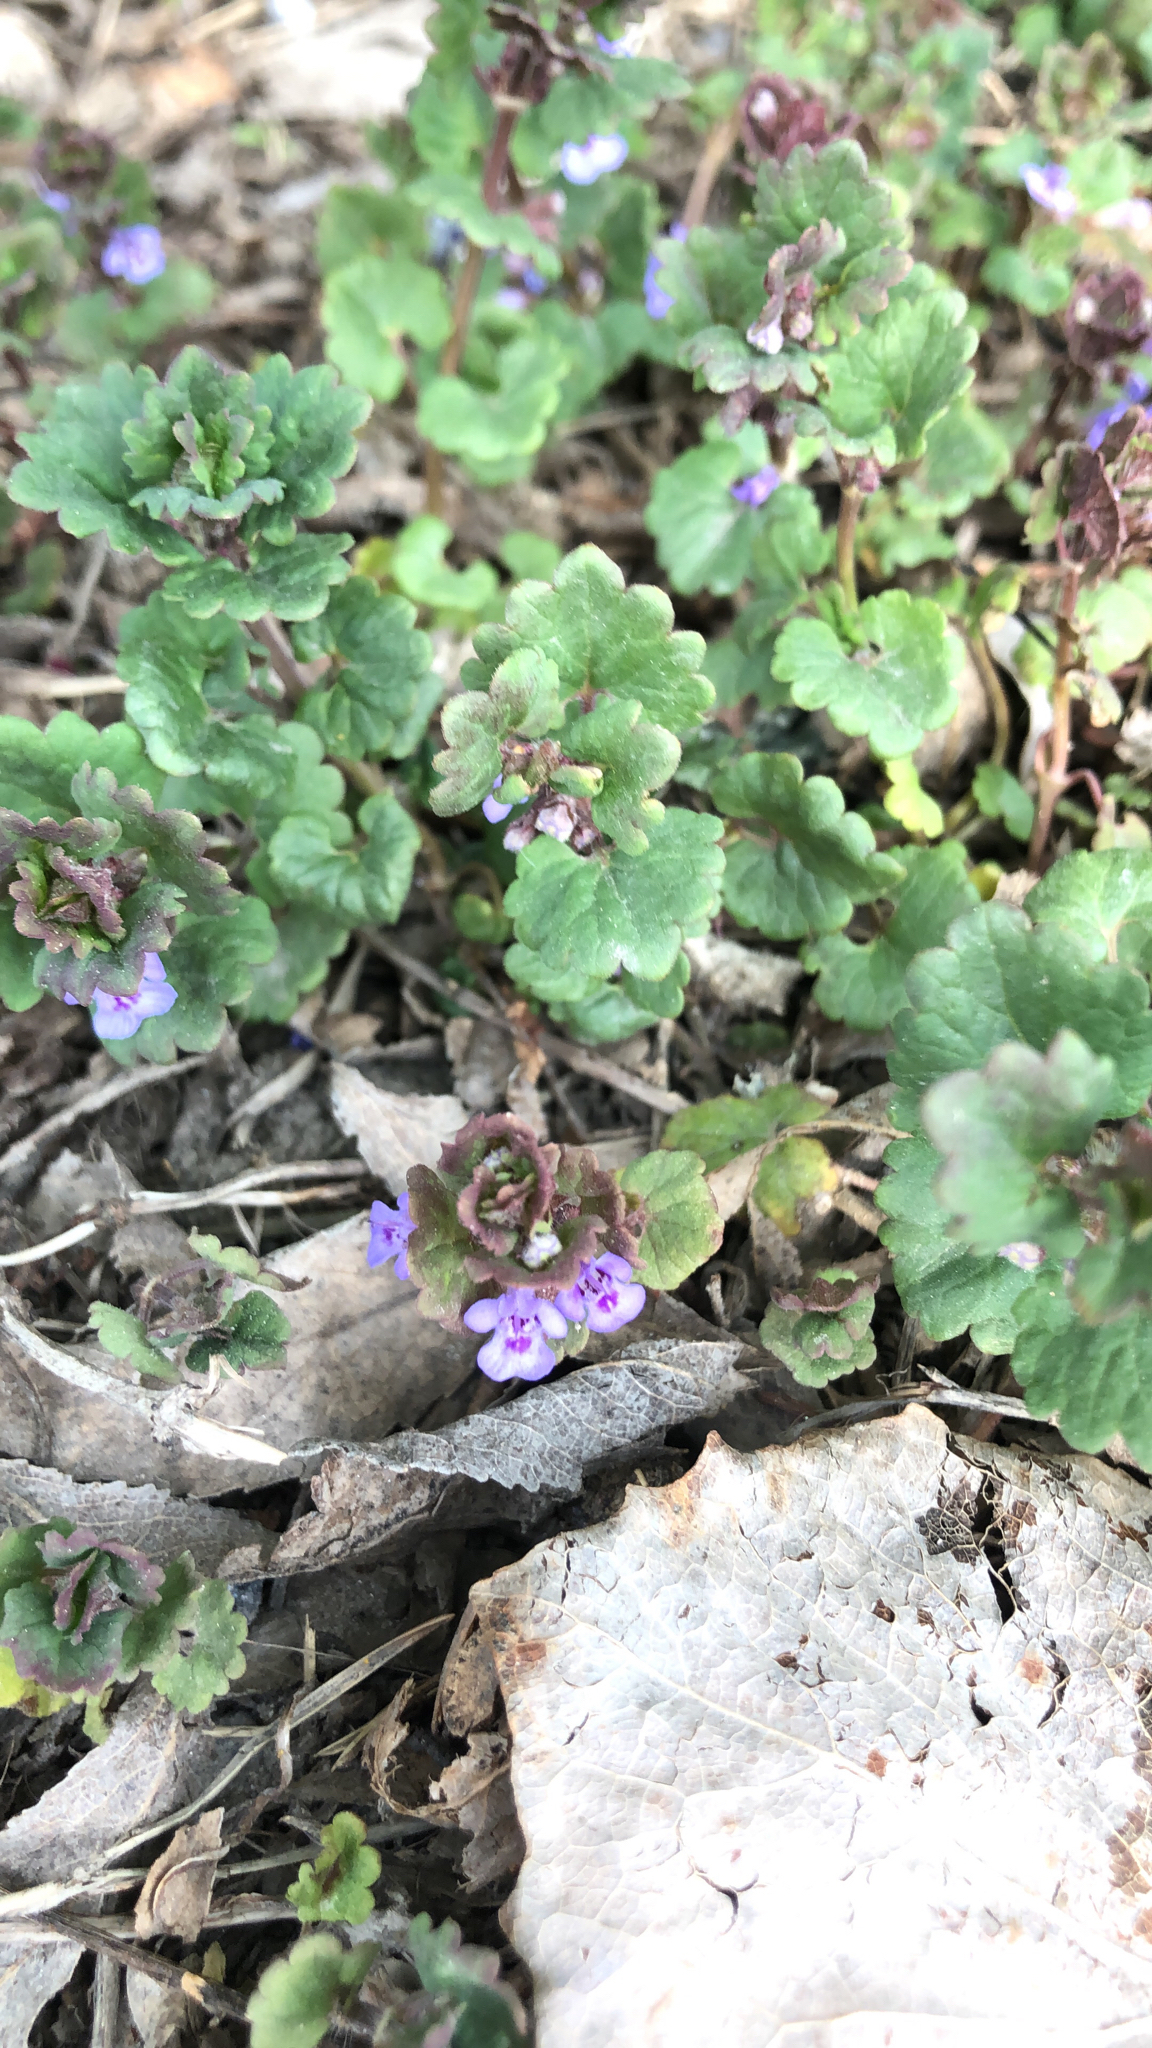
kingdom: Plantae
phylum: Tracheophyta
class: Magnoliopsida
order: Lamiales
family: Lamiaceae
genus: Glechoma
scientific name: Glechoma hederacea
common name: Ground ivy
